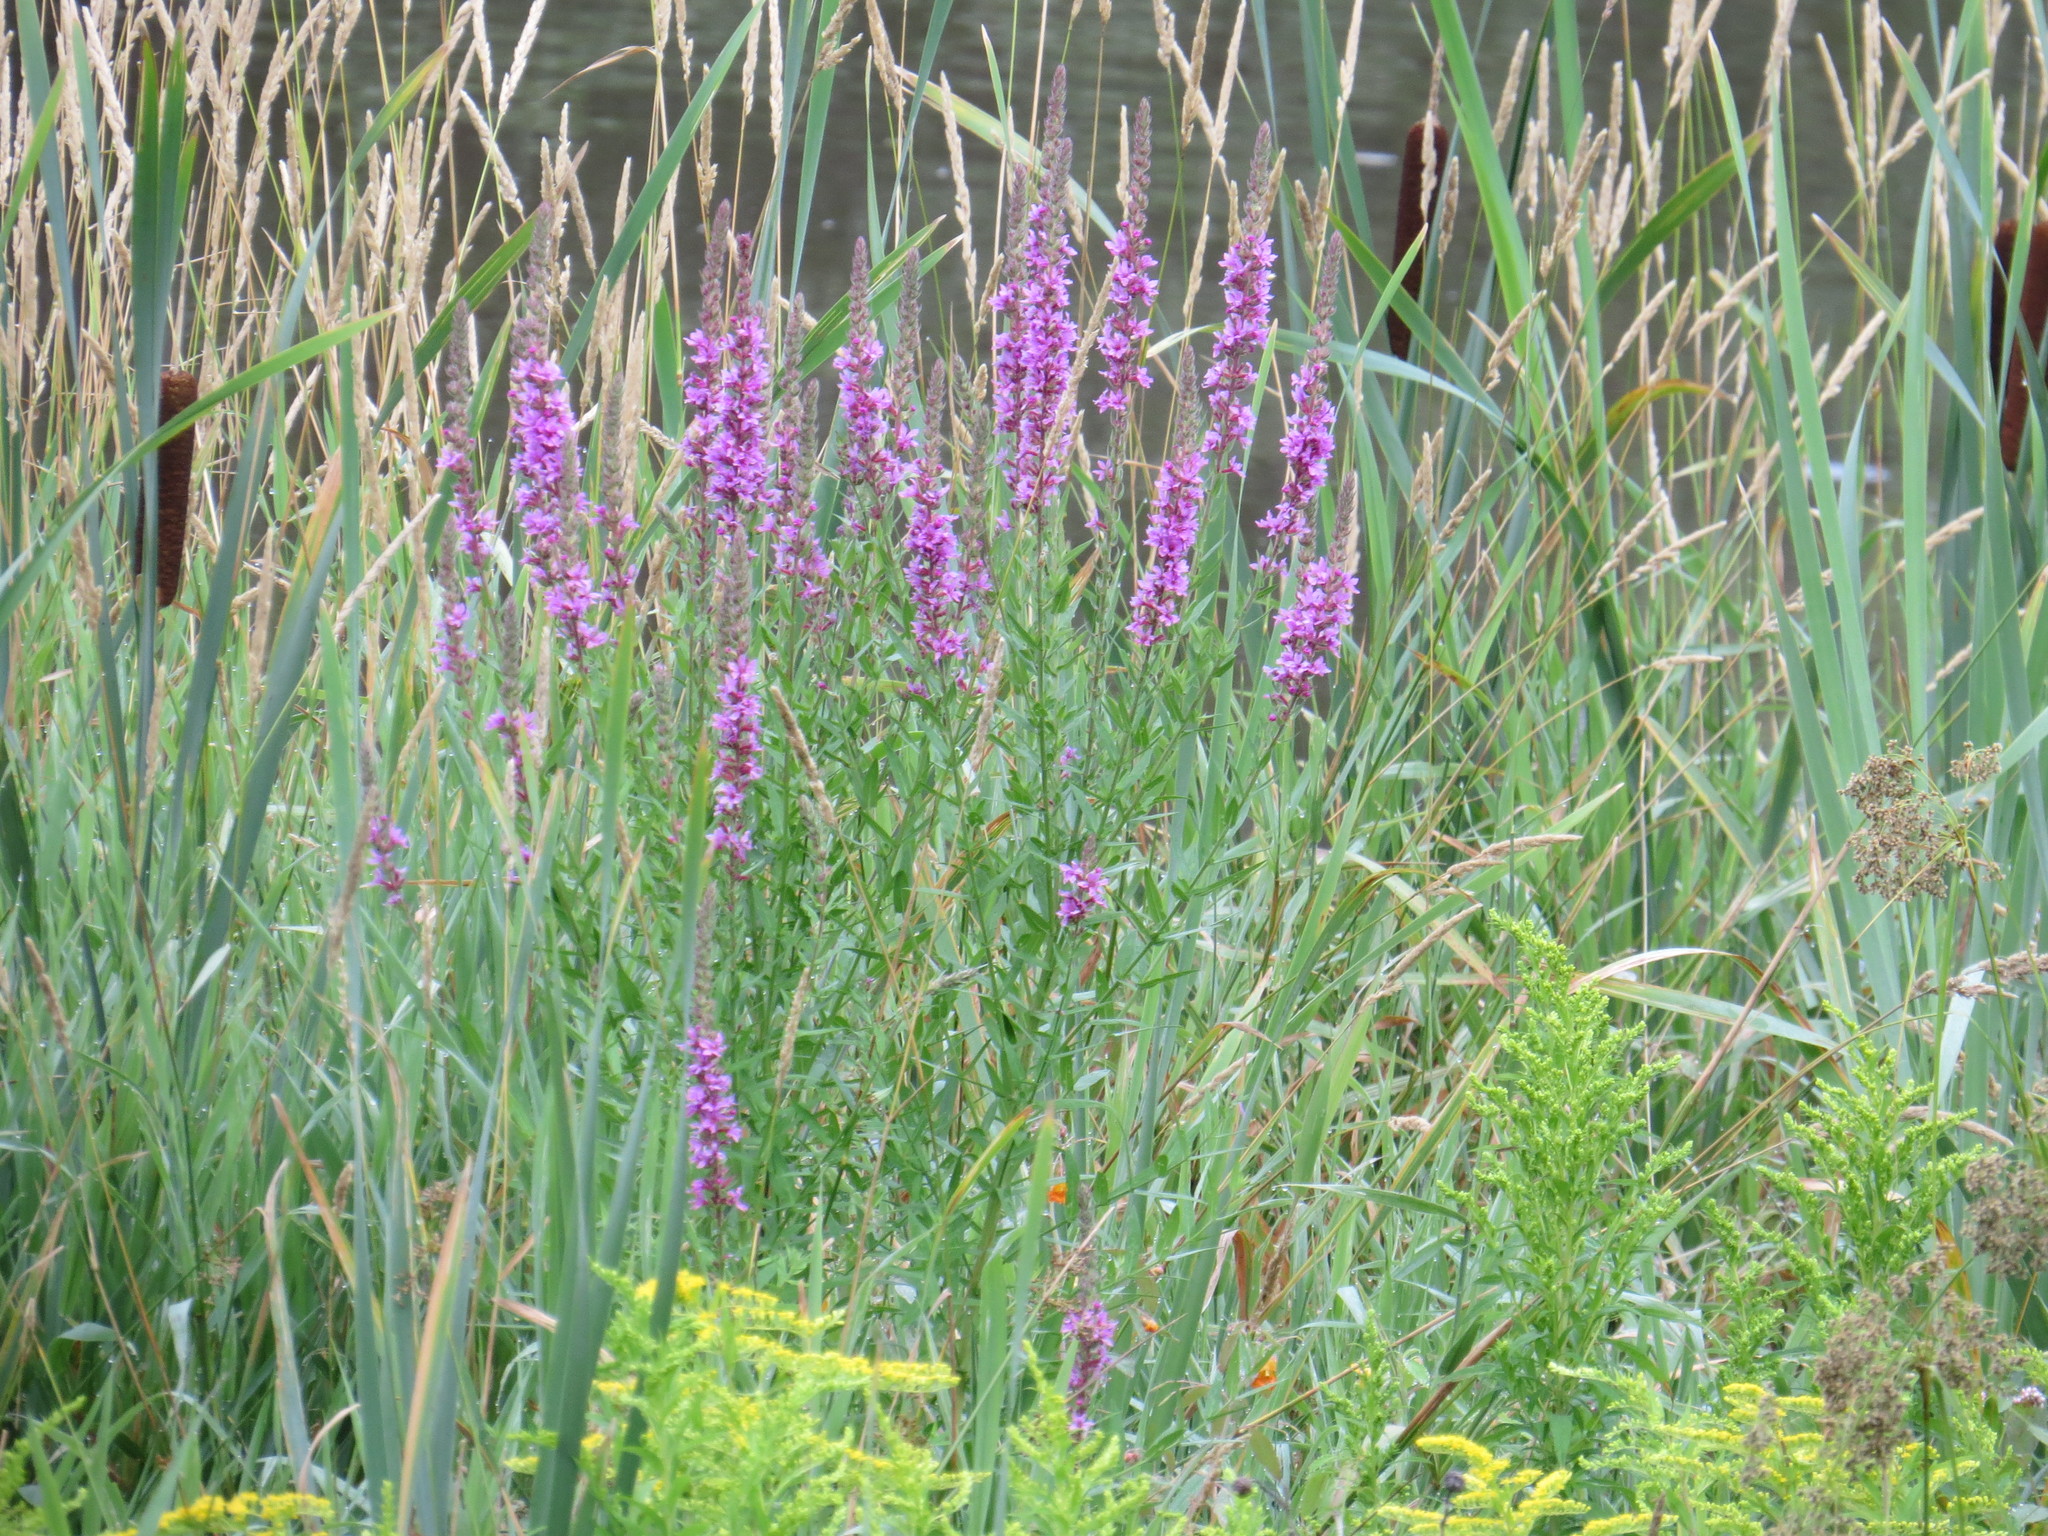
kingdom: Plantae
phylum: Tracheophyta
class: Magnoliopsida
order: Myrtales
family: Lythraceae
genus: Lythrum
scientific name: Lythrum salicaria
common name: Purple loosestrife
